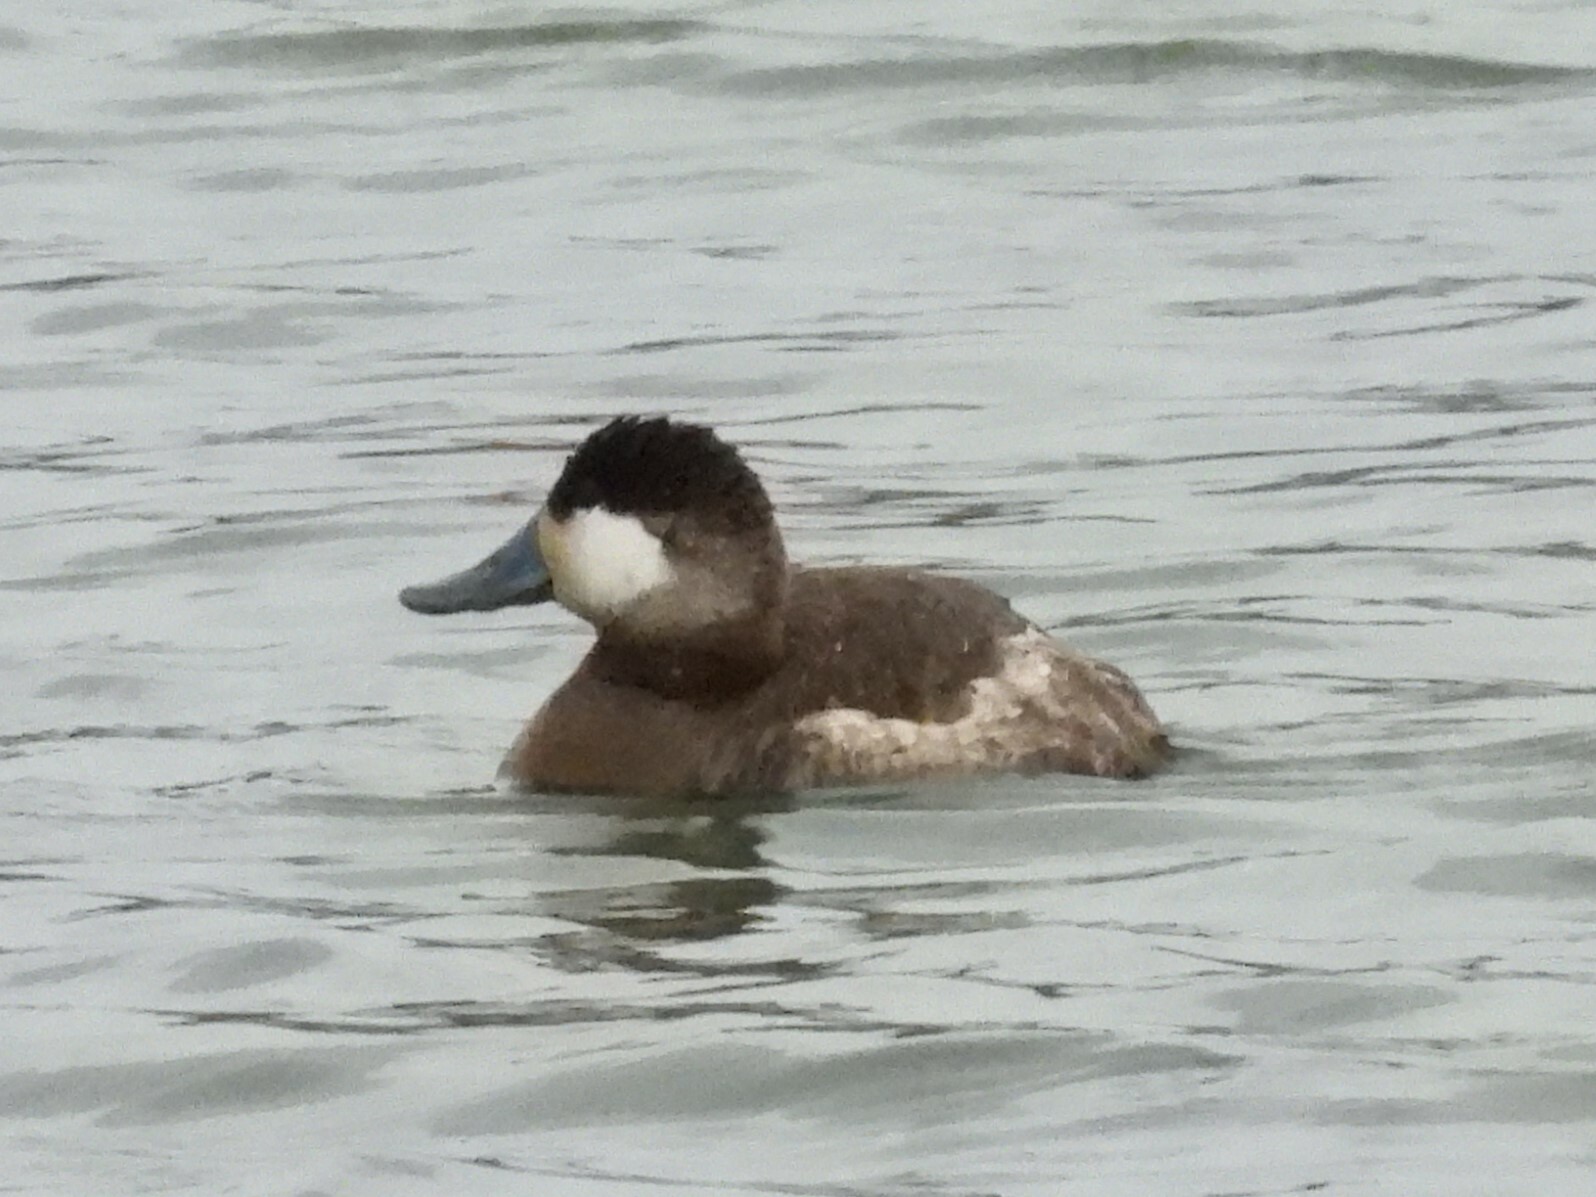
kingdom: Animalia
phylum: Chordata
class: Aves
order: Anseriformes
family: Anatidae
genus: Oxyura
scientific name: Oxyura jamaicensis
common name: Ruddy duck
